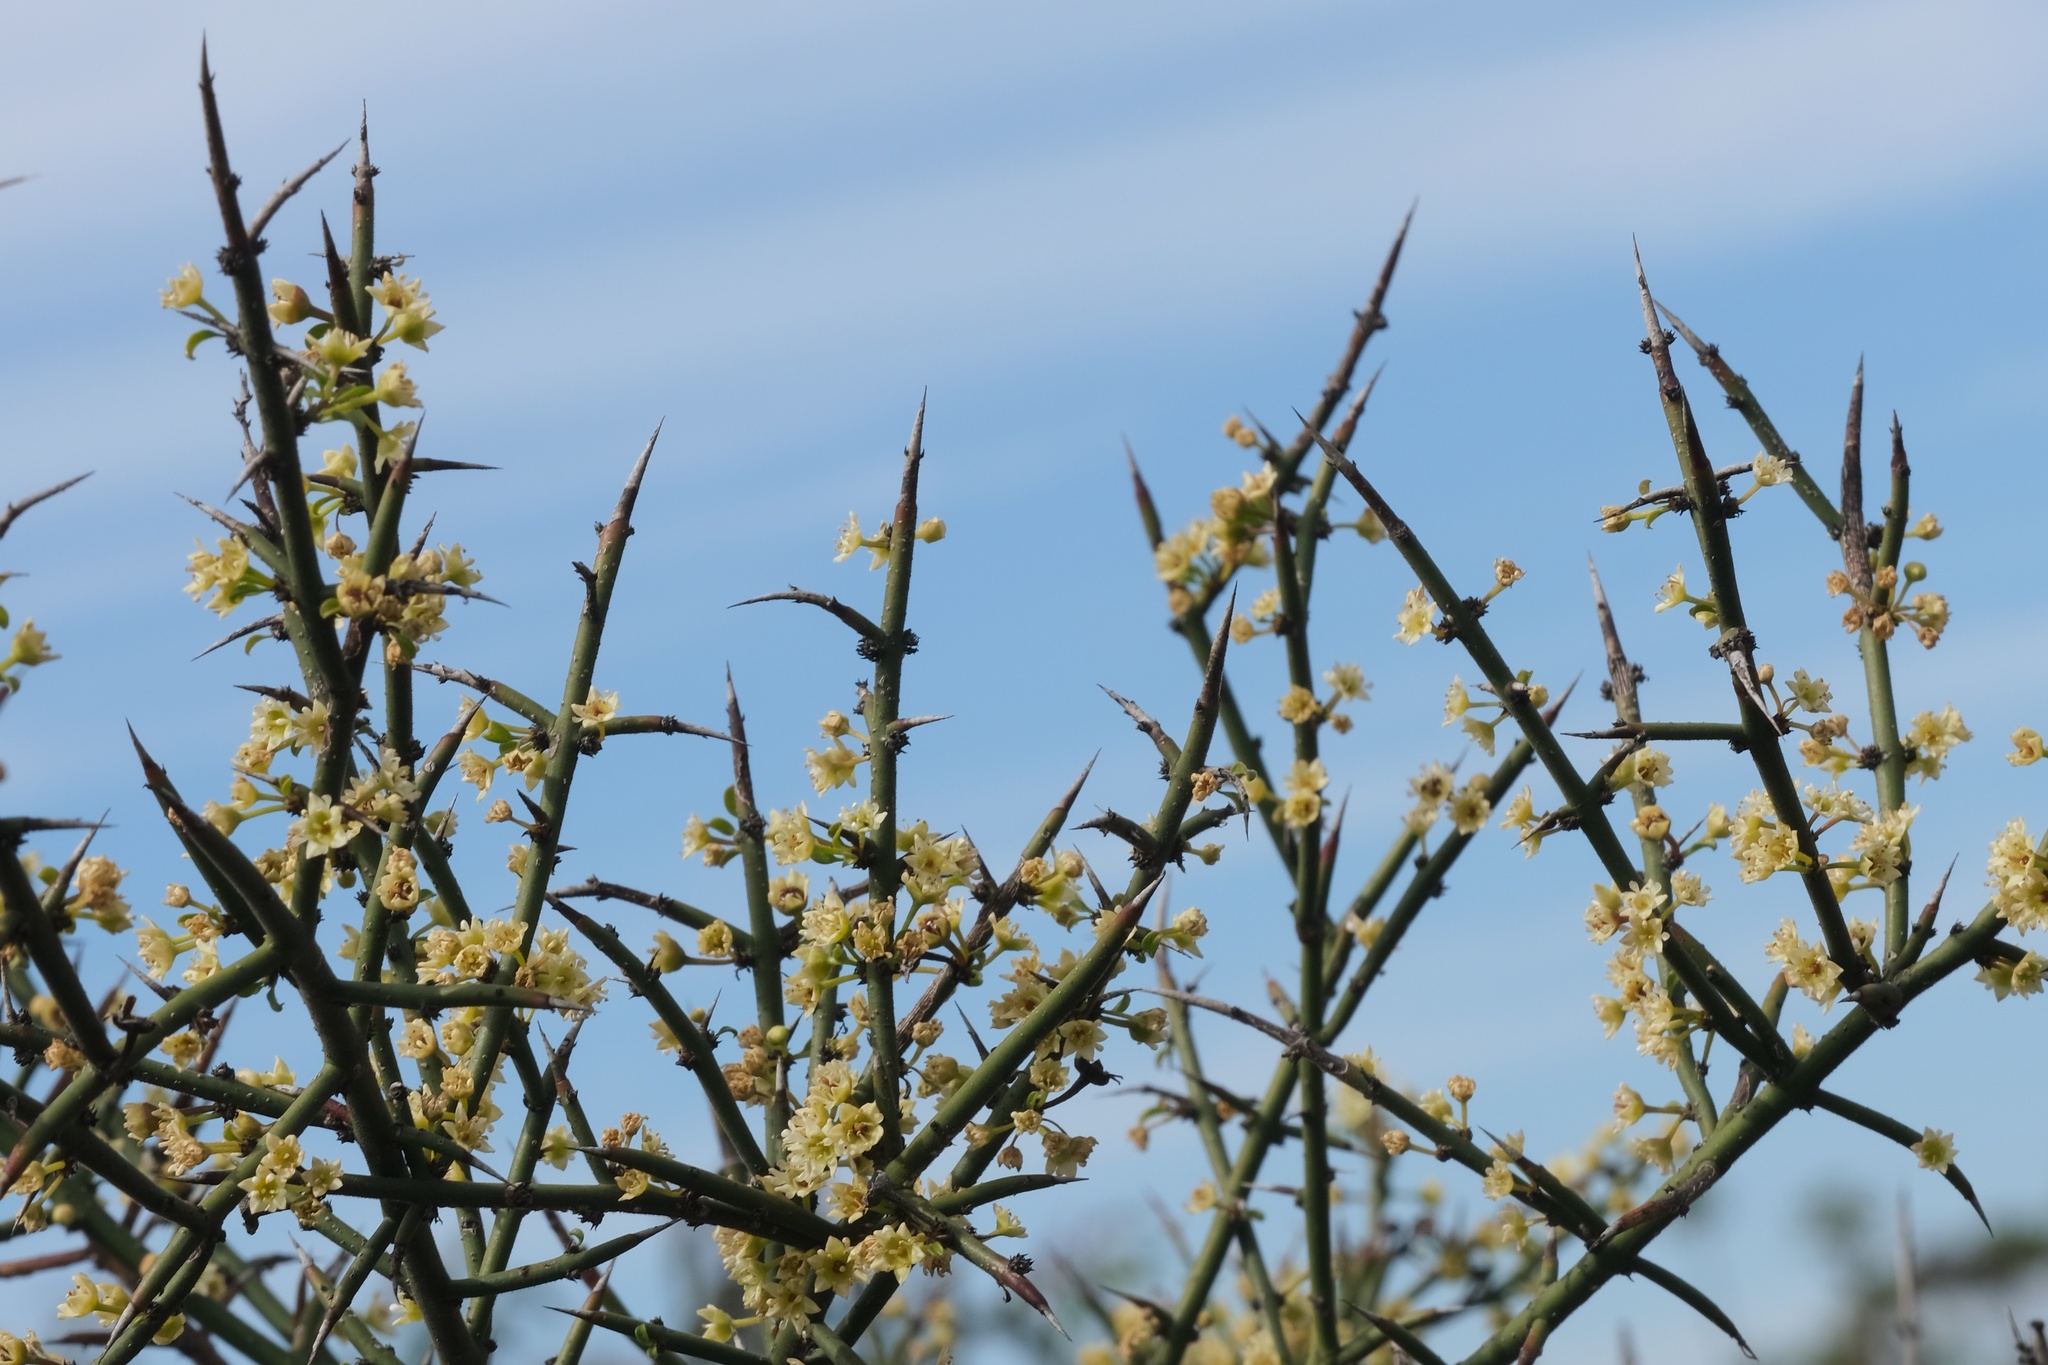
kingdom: Plantae
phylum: Tracheophyta
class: Magnoliopsida
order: Rosales
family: Rhamnaceae
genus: Adolphia
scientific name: Adolphia californica
